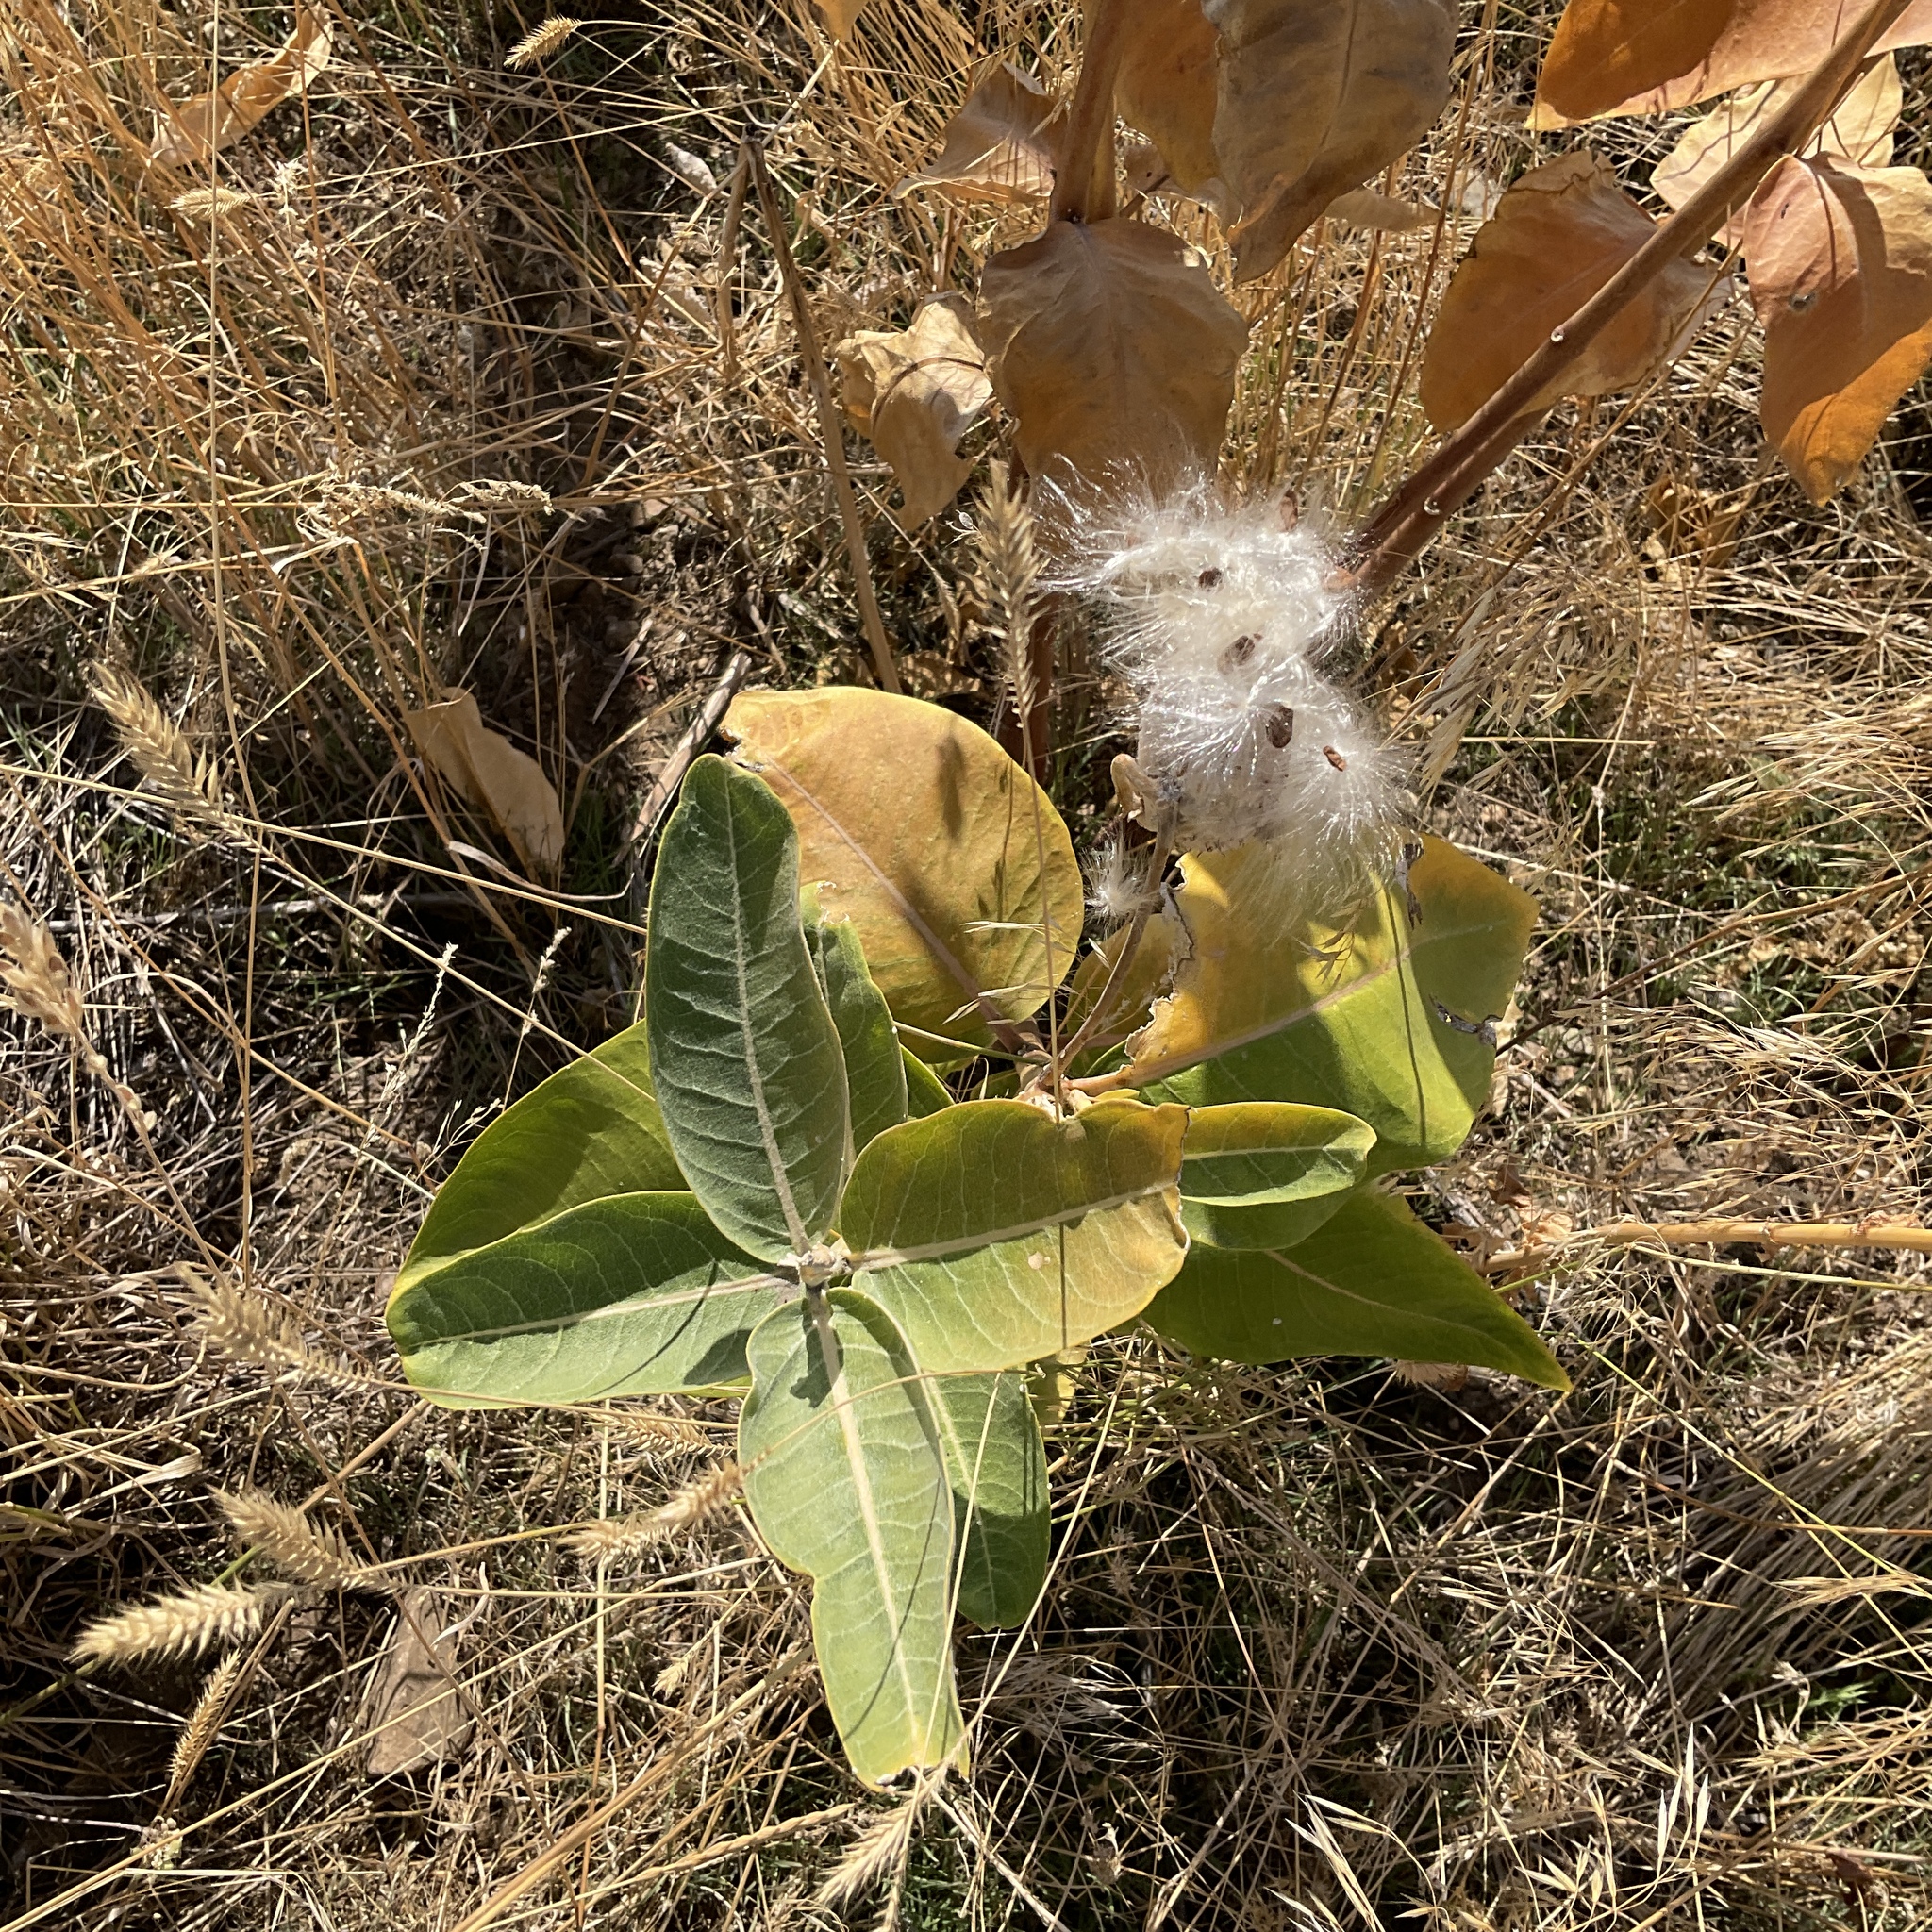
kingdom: Plantae
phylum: Tracheophyta
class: Magnoliopsida
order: Gentianales
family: Apocynaceae
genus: Asclepias
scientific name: Asclepias speciosa
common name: Showy milkweed
